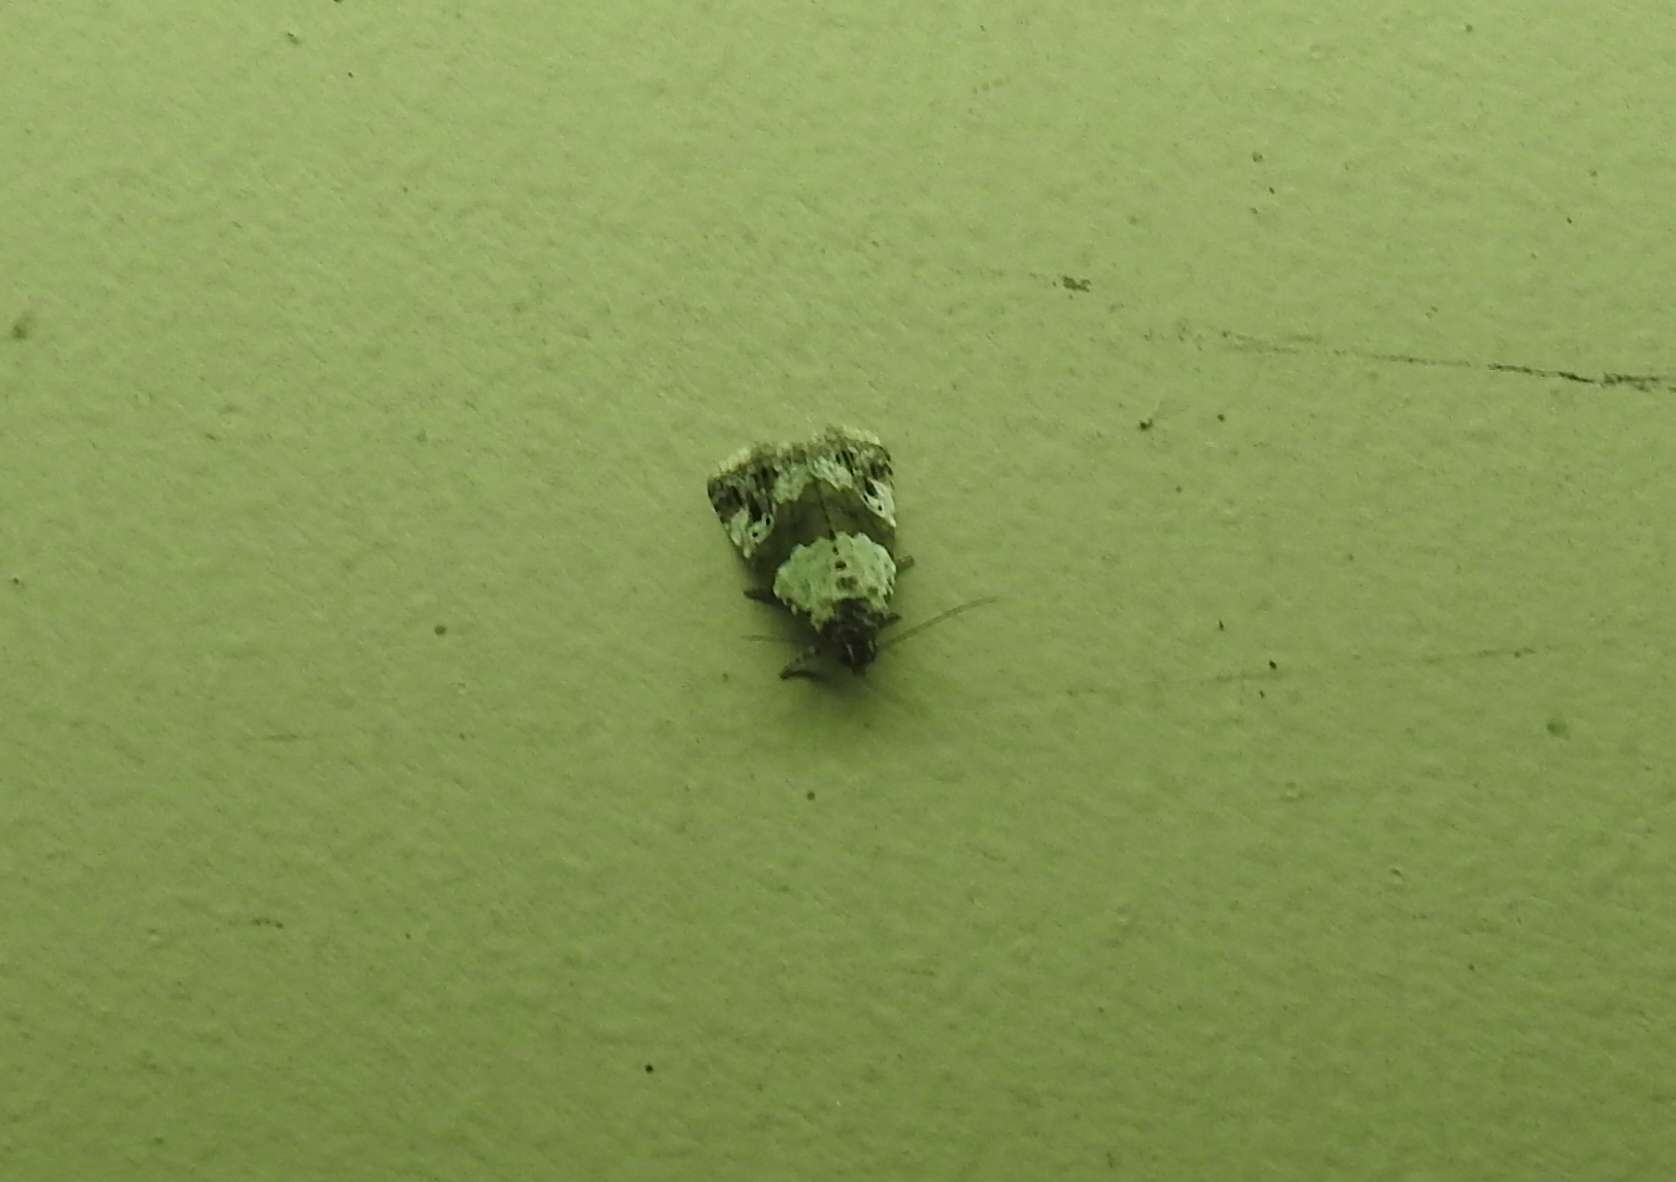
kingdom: Animalia
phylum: Arthropoda
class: Insecta
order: Lepidoptera
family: Noctuidae
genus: Maliattha
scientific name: Maliattha signifera
